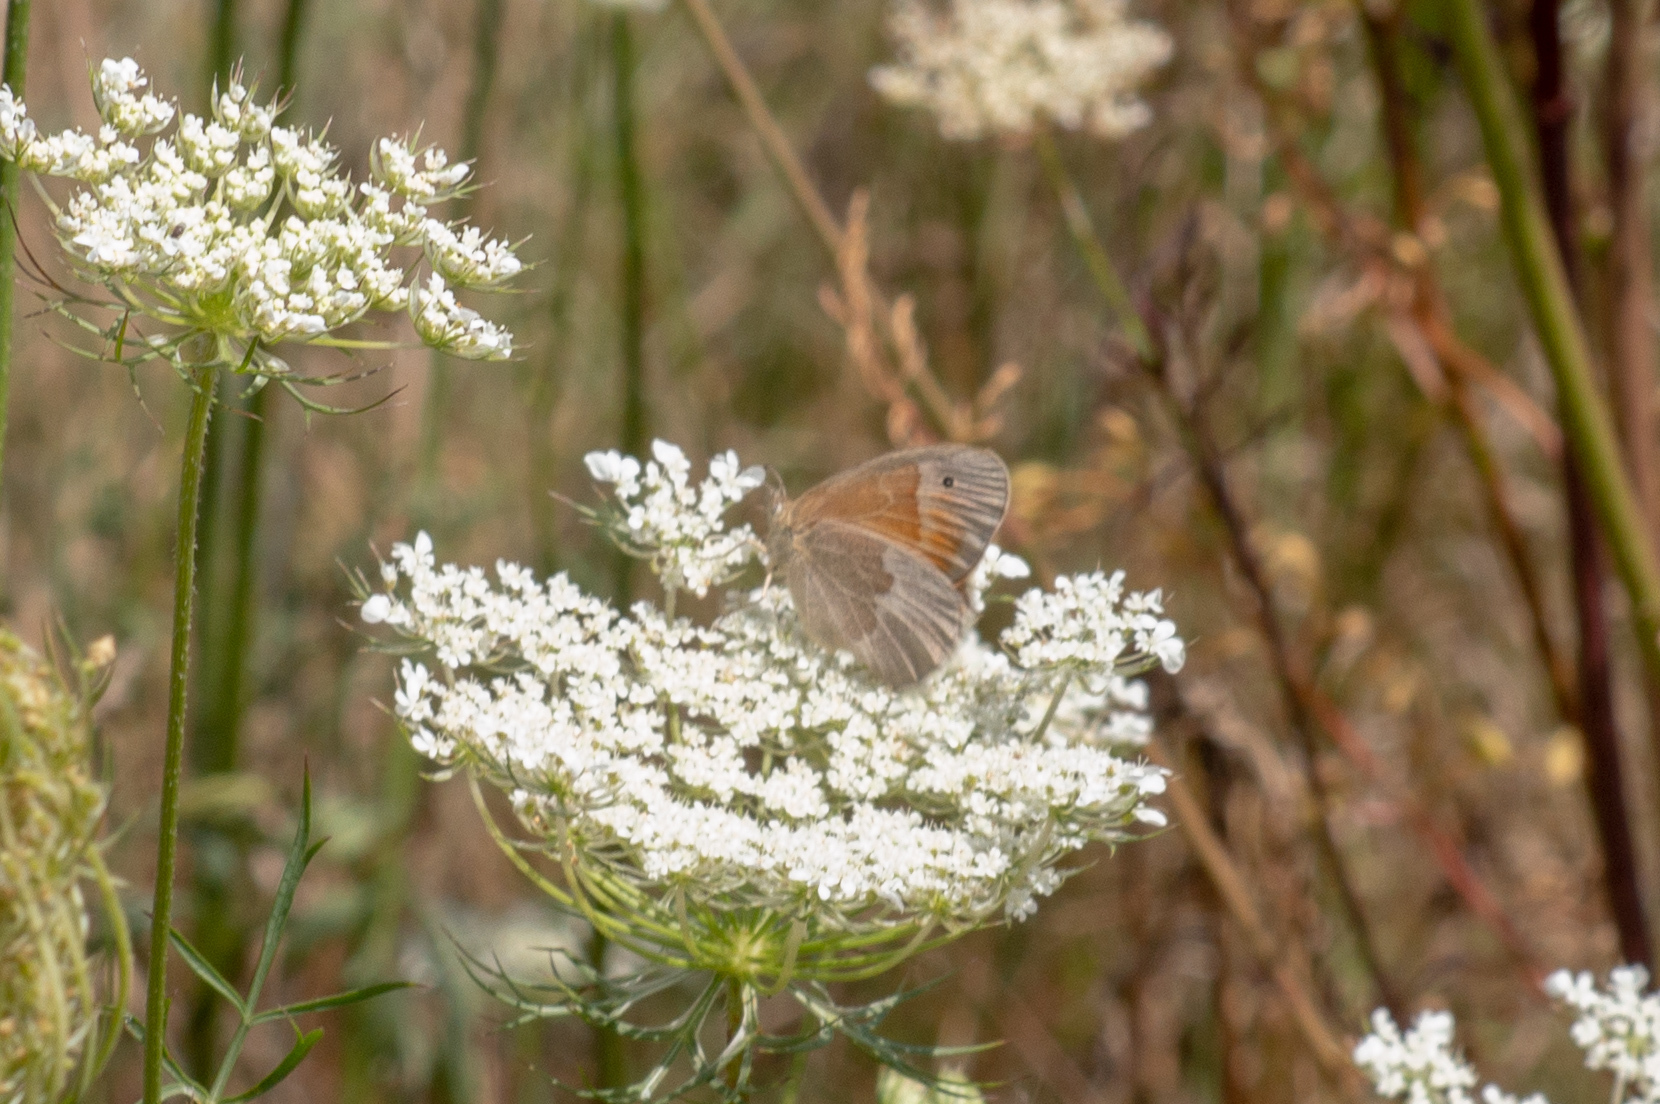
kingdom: Animalia
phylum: Arthropoda
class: Insecta
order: Lepidoptera
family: Nymphalidae
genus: Coenonympha
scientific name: Coenonympha california
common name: Common ringlet
